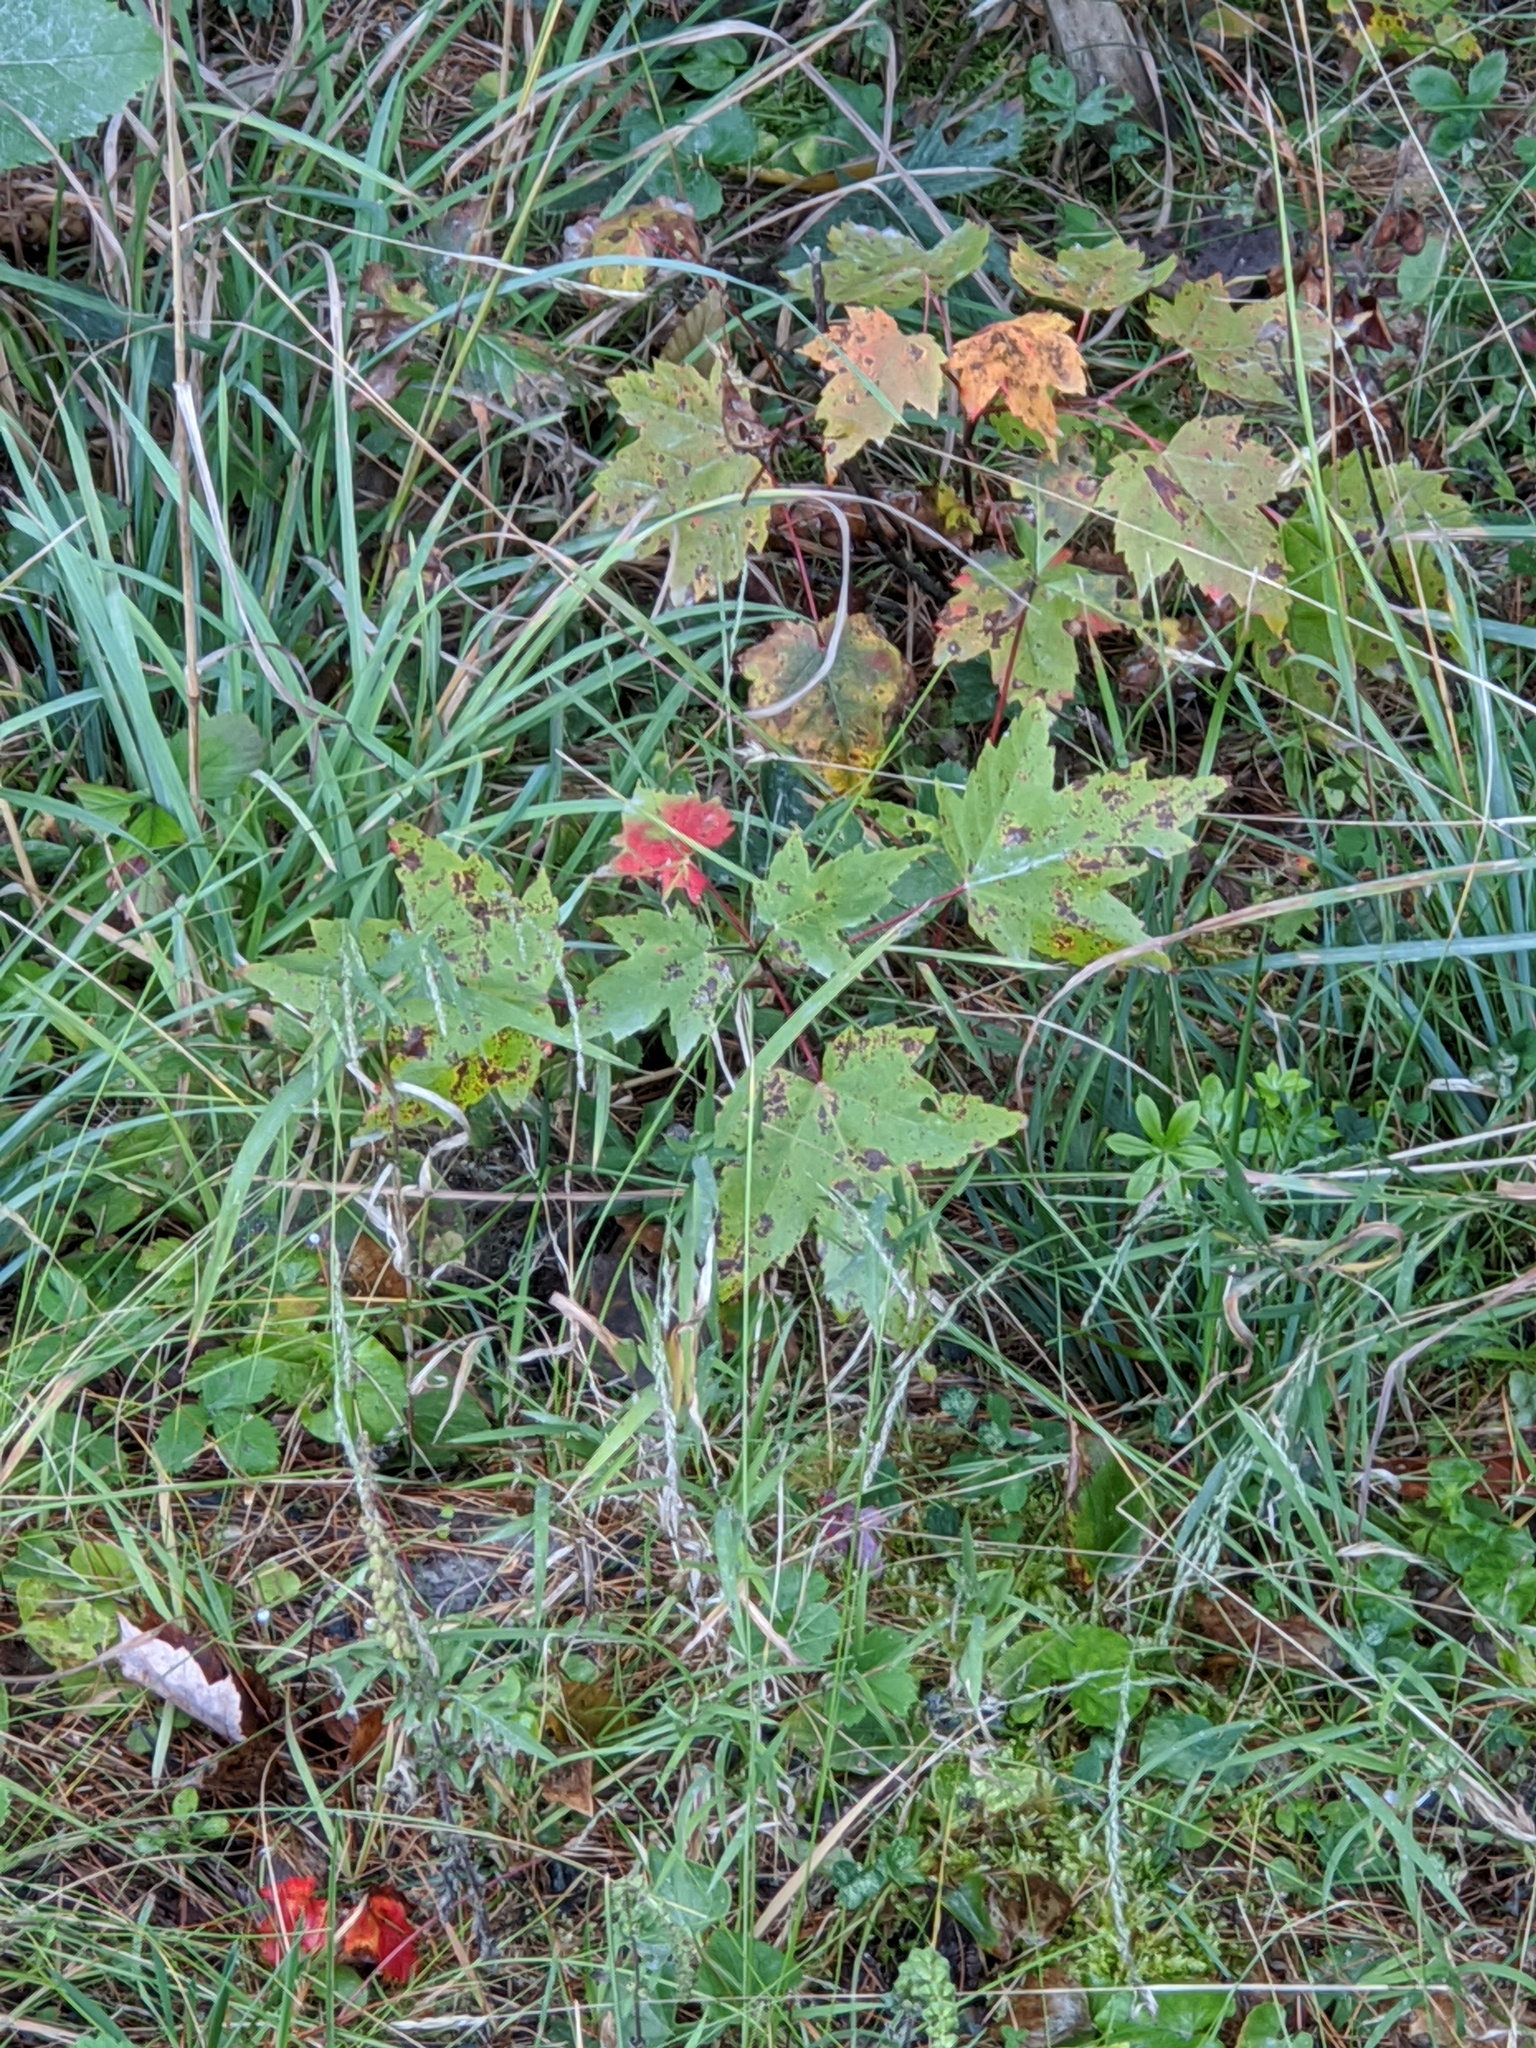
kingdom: Plantae
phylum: Tracheophyta
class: Magnoliopsida
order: Sapindales
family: Sapindaceae
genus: Acer
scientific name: Acer rubrum
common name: Red maple
